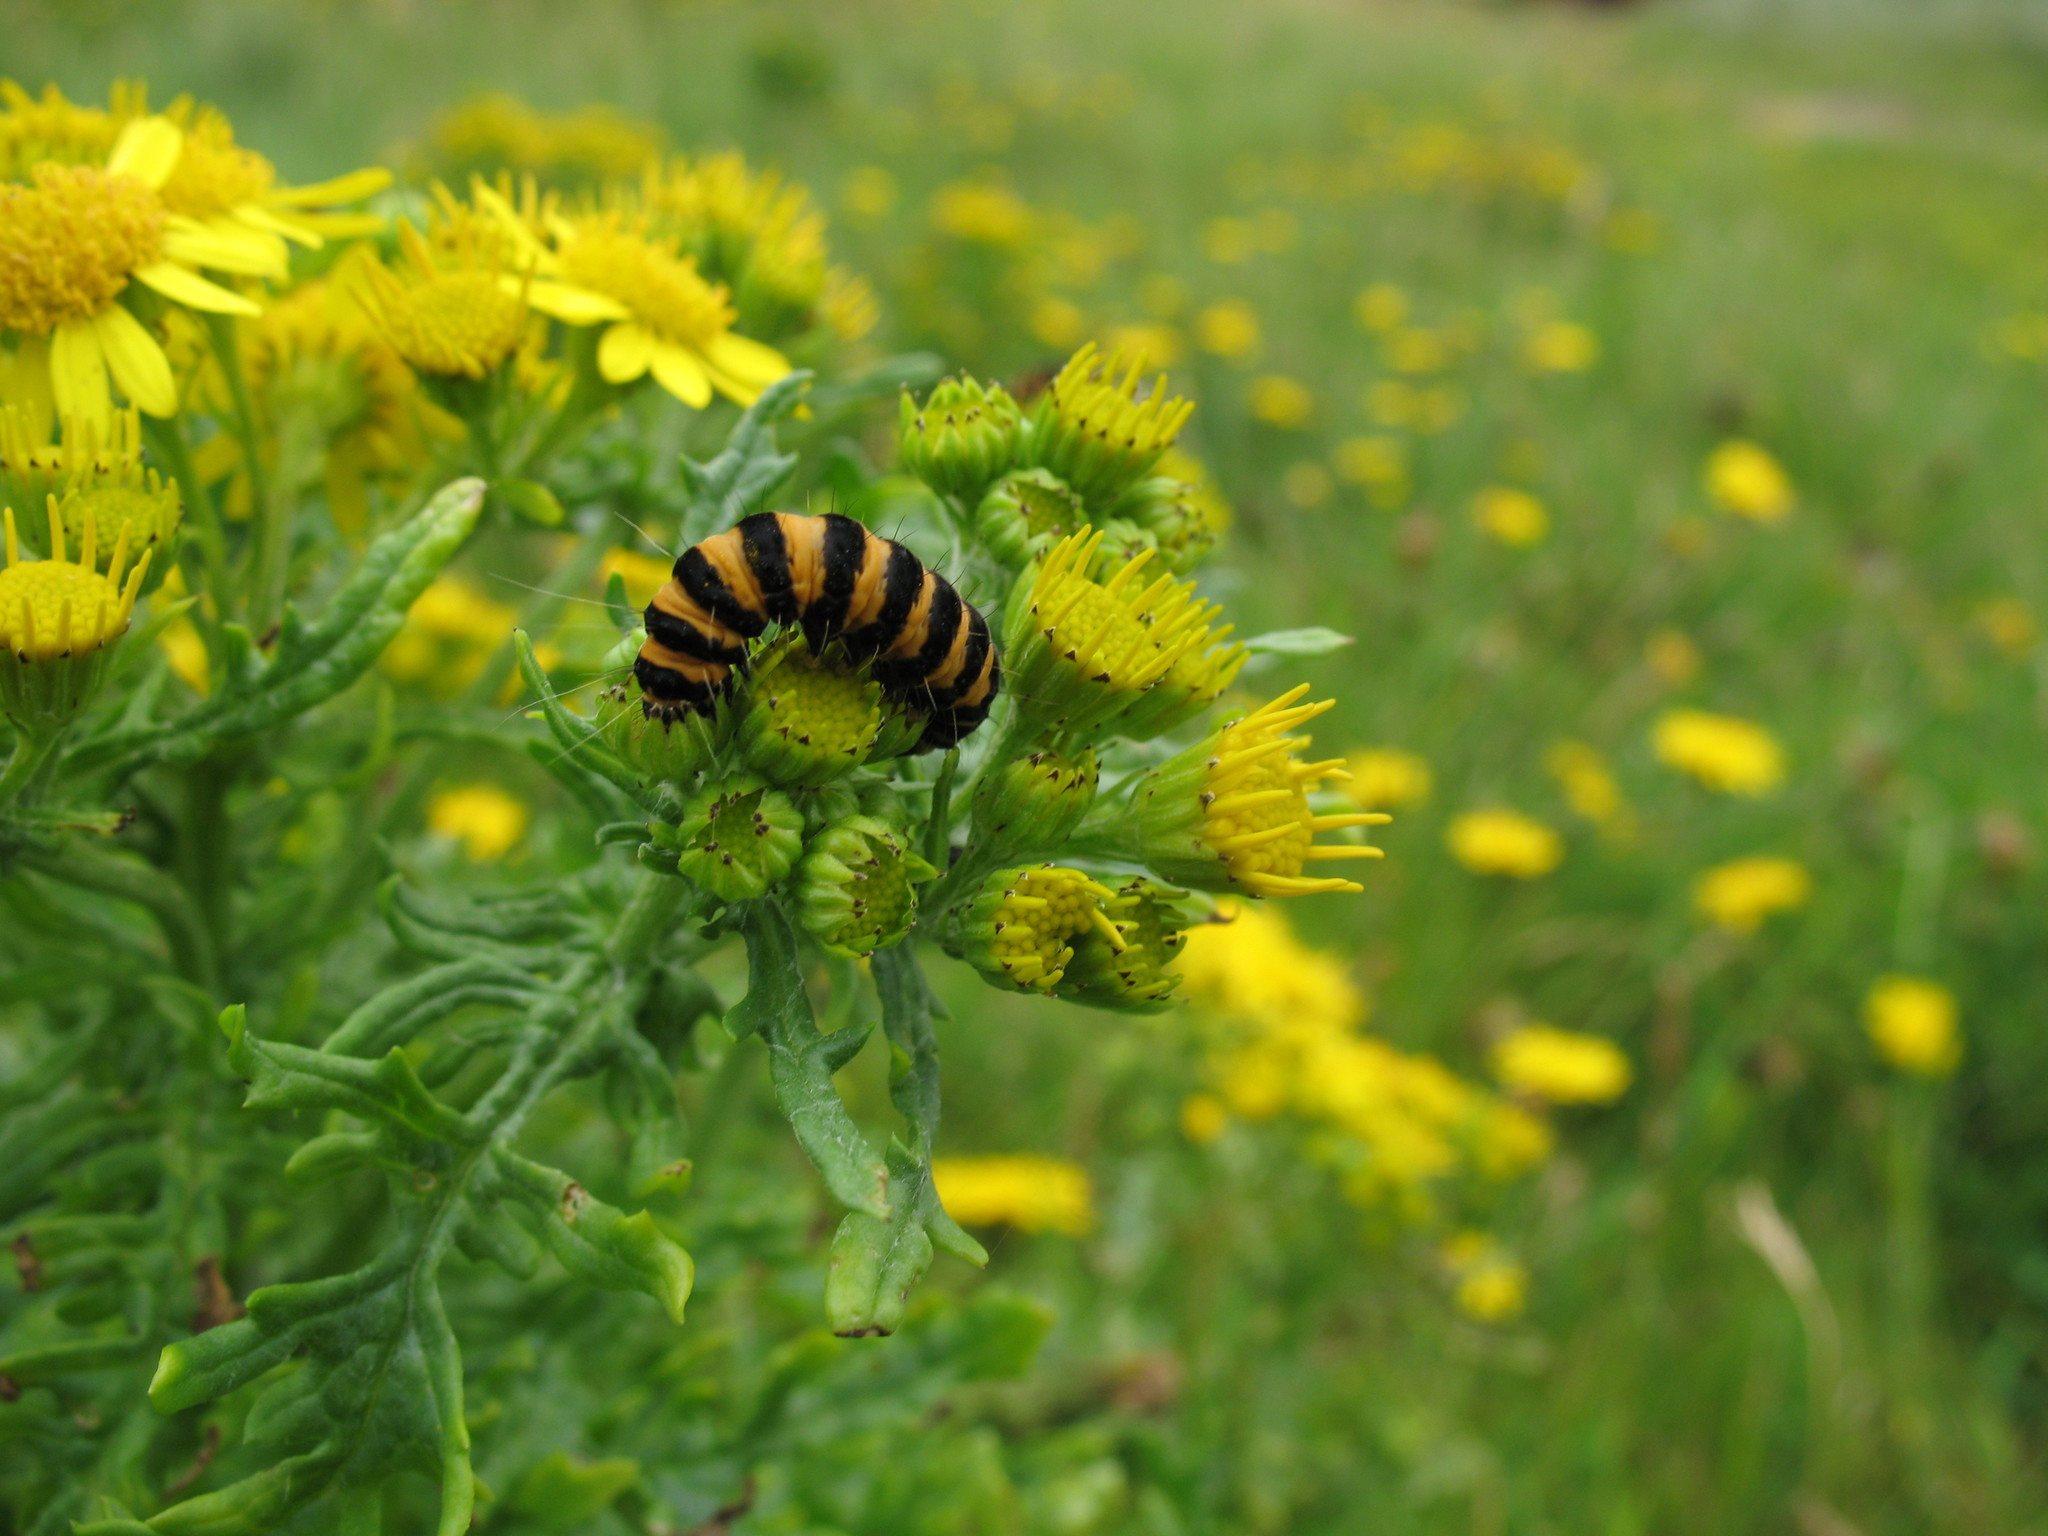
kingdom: Animalia
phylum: Arthropoda
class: Insecta
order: Lepidoptera
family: Erebidae
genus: Tyria
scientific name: Tyria jacobaeae
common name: Cinnabar
